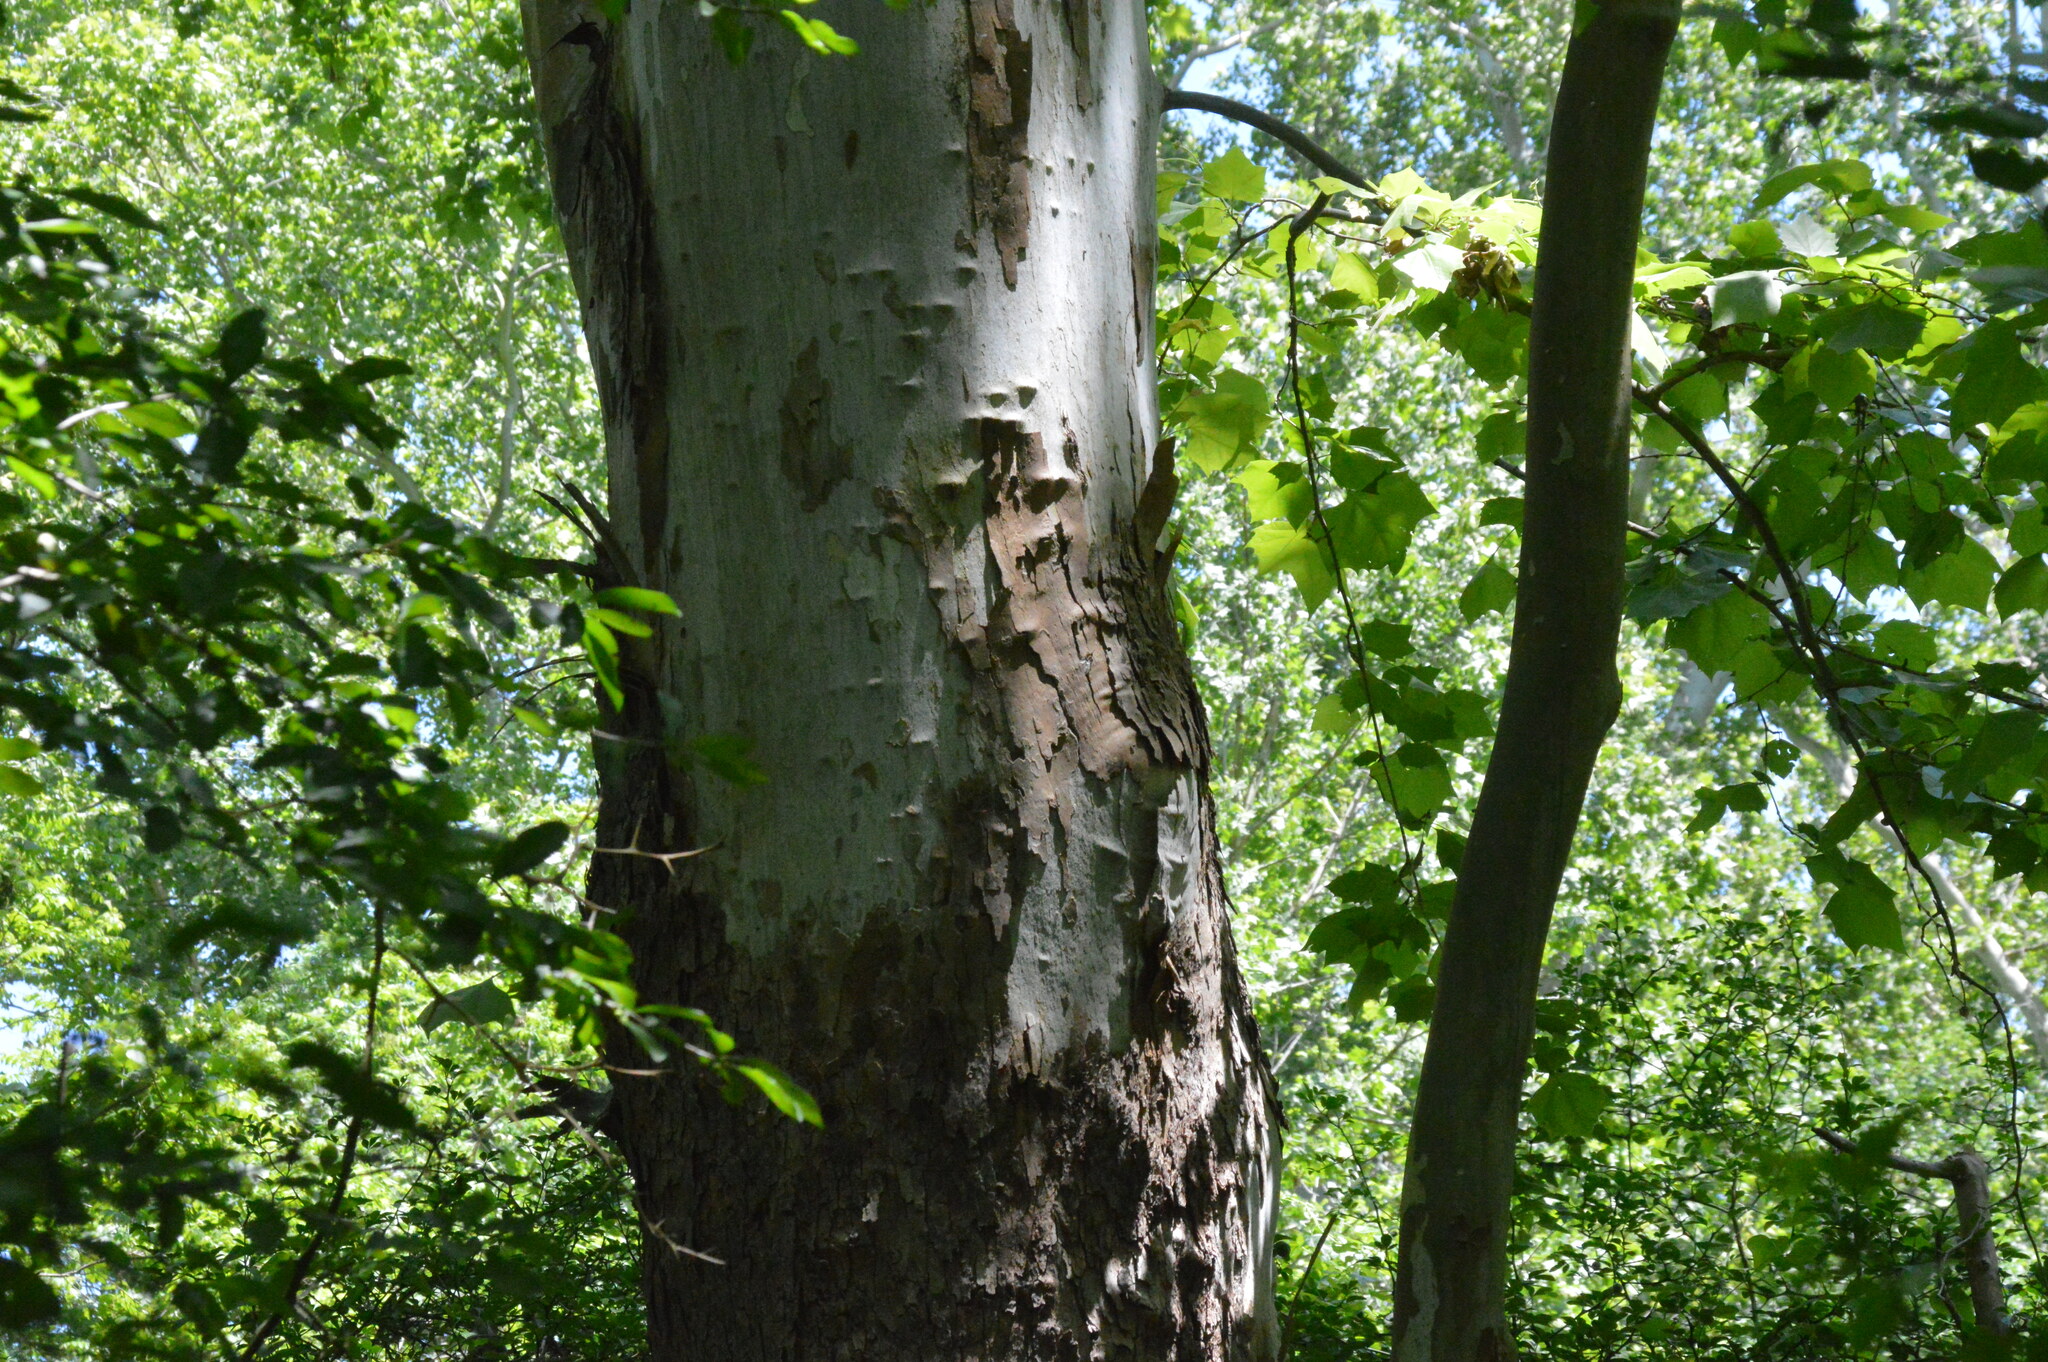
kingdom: Plantae
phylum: Tracheophyta
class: Magnoliopsida
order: Proteales
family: Platanaceae
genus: Platanus
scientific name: Platanus occidentalis
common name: American sycamore
